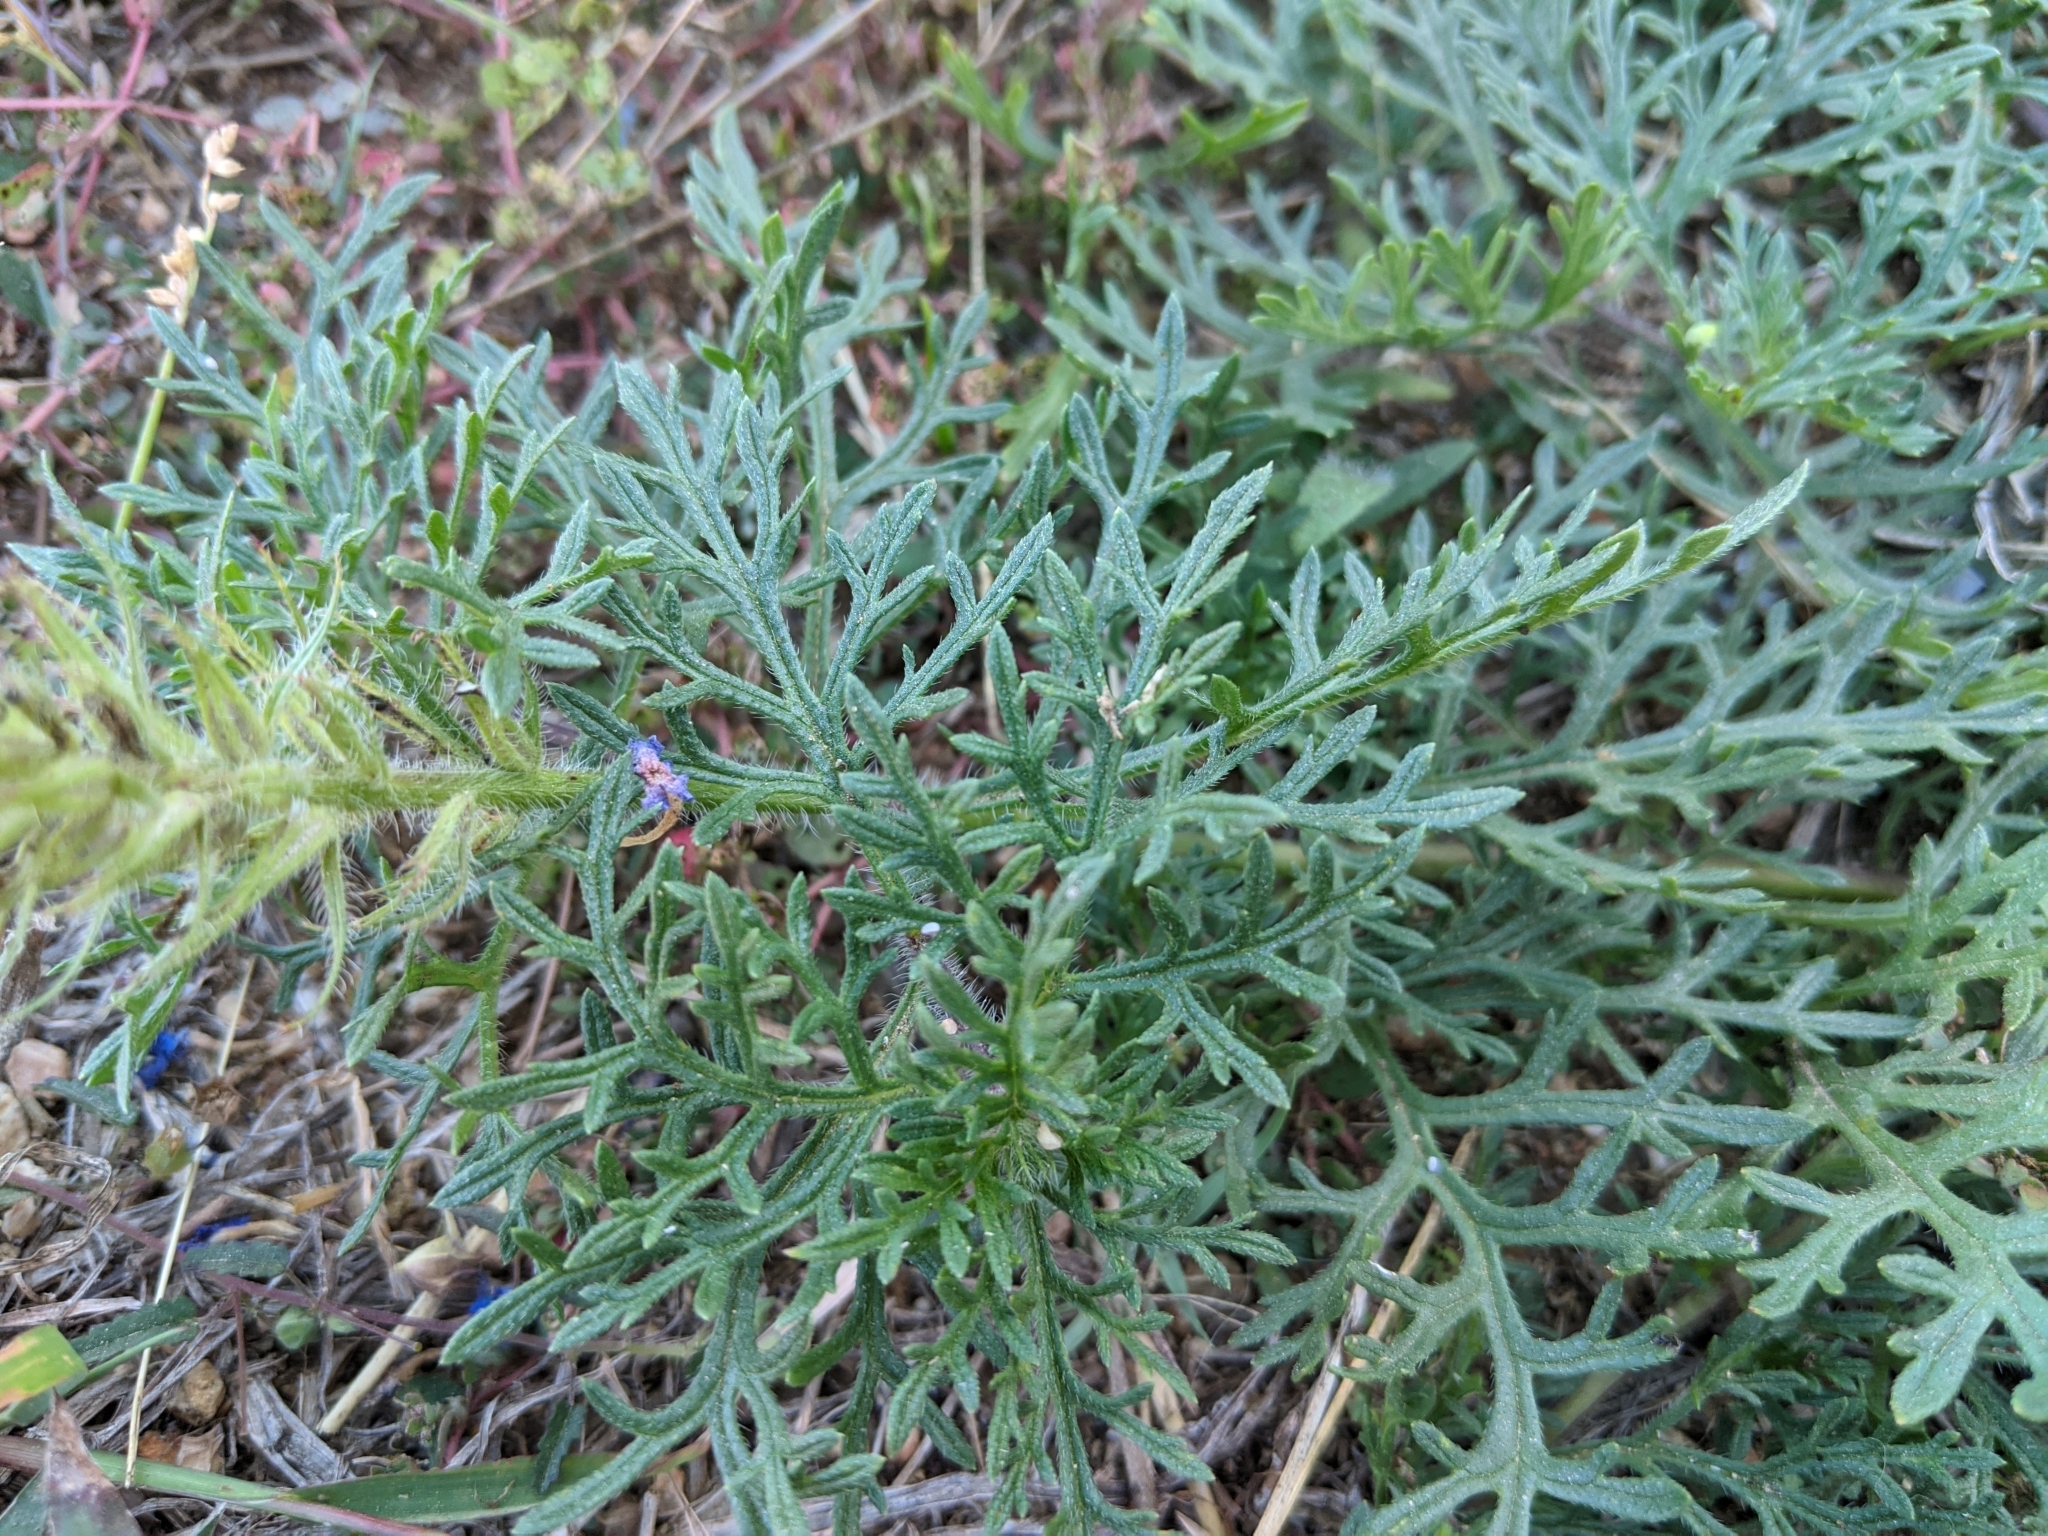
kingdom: Plantae
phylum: Tracheophyta
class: Magnoliopsida
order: Lamiales
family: Verbenaceae
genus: Verbena
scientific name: Verbena bipinnatifida
